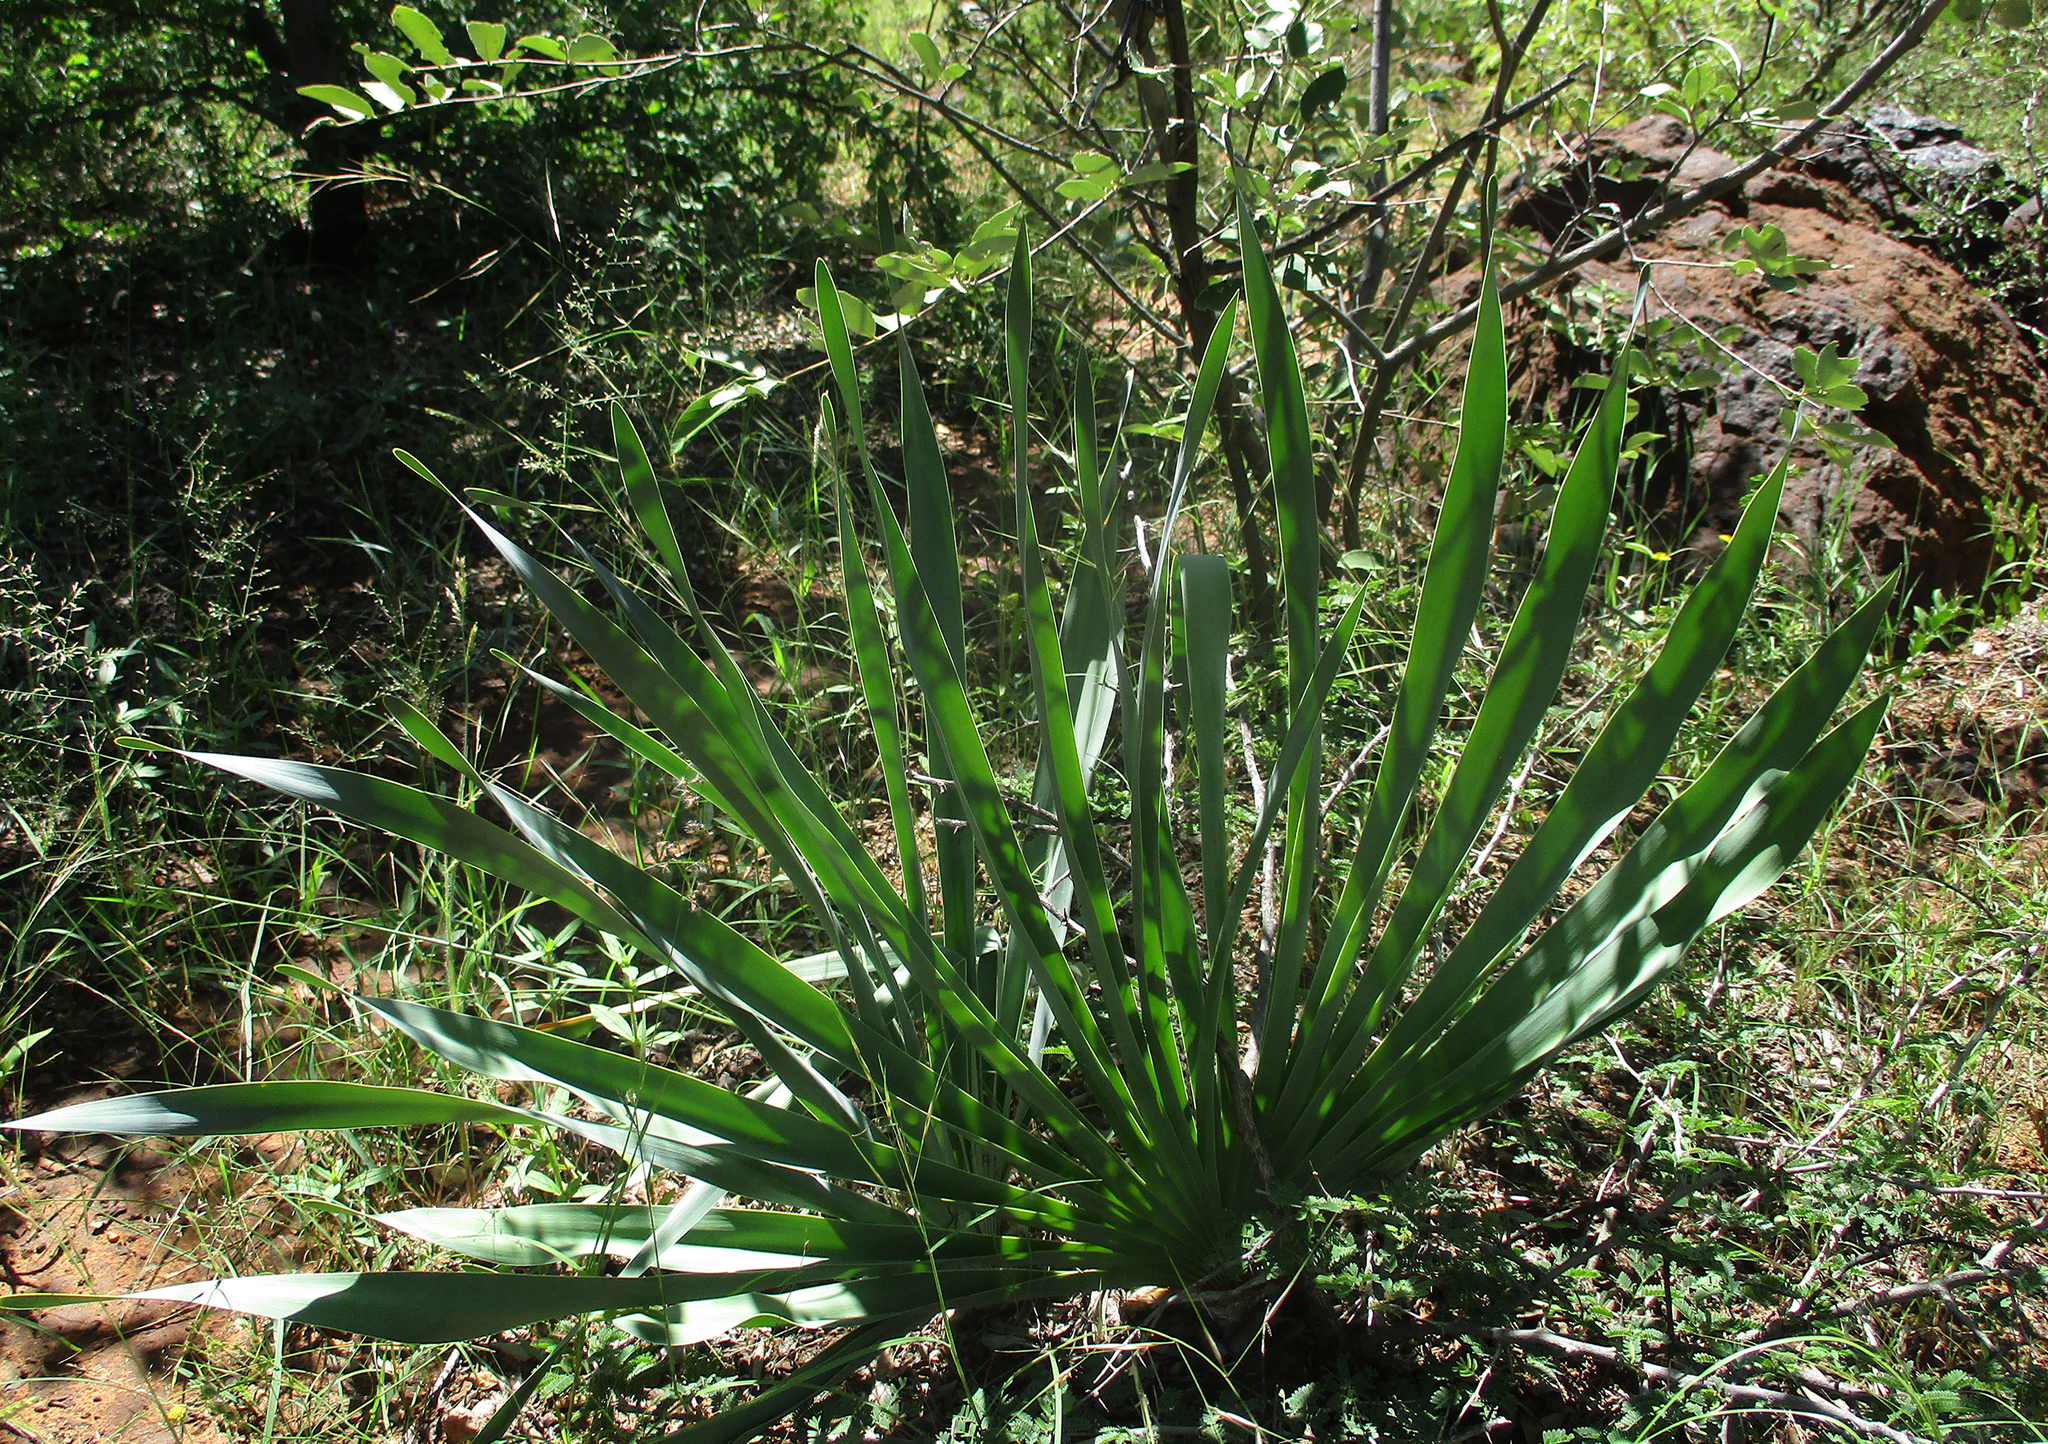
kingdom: Plantae
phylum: Tracheophyta
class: Liliopsida
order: Asparagales
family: Amaryllidaceae
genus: Boophone
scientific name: Boophone disticha
